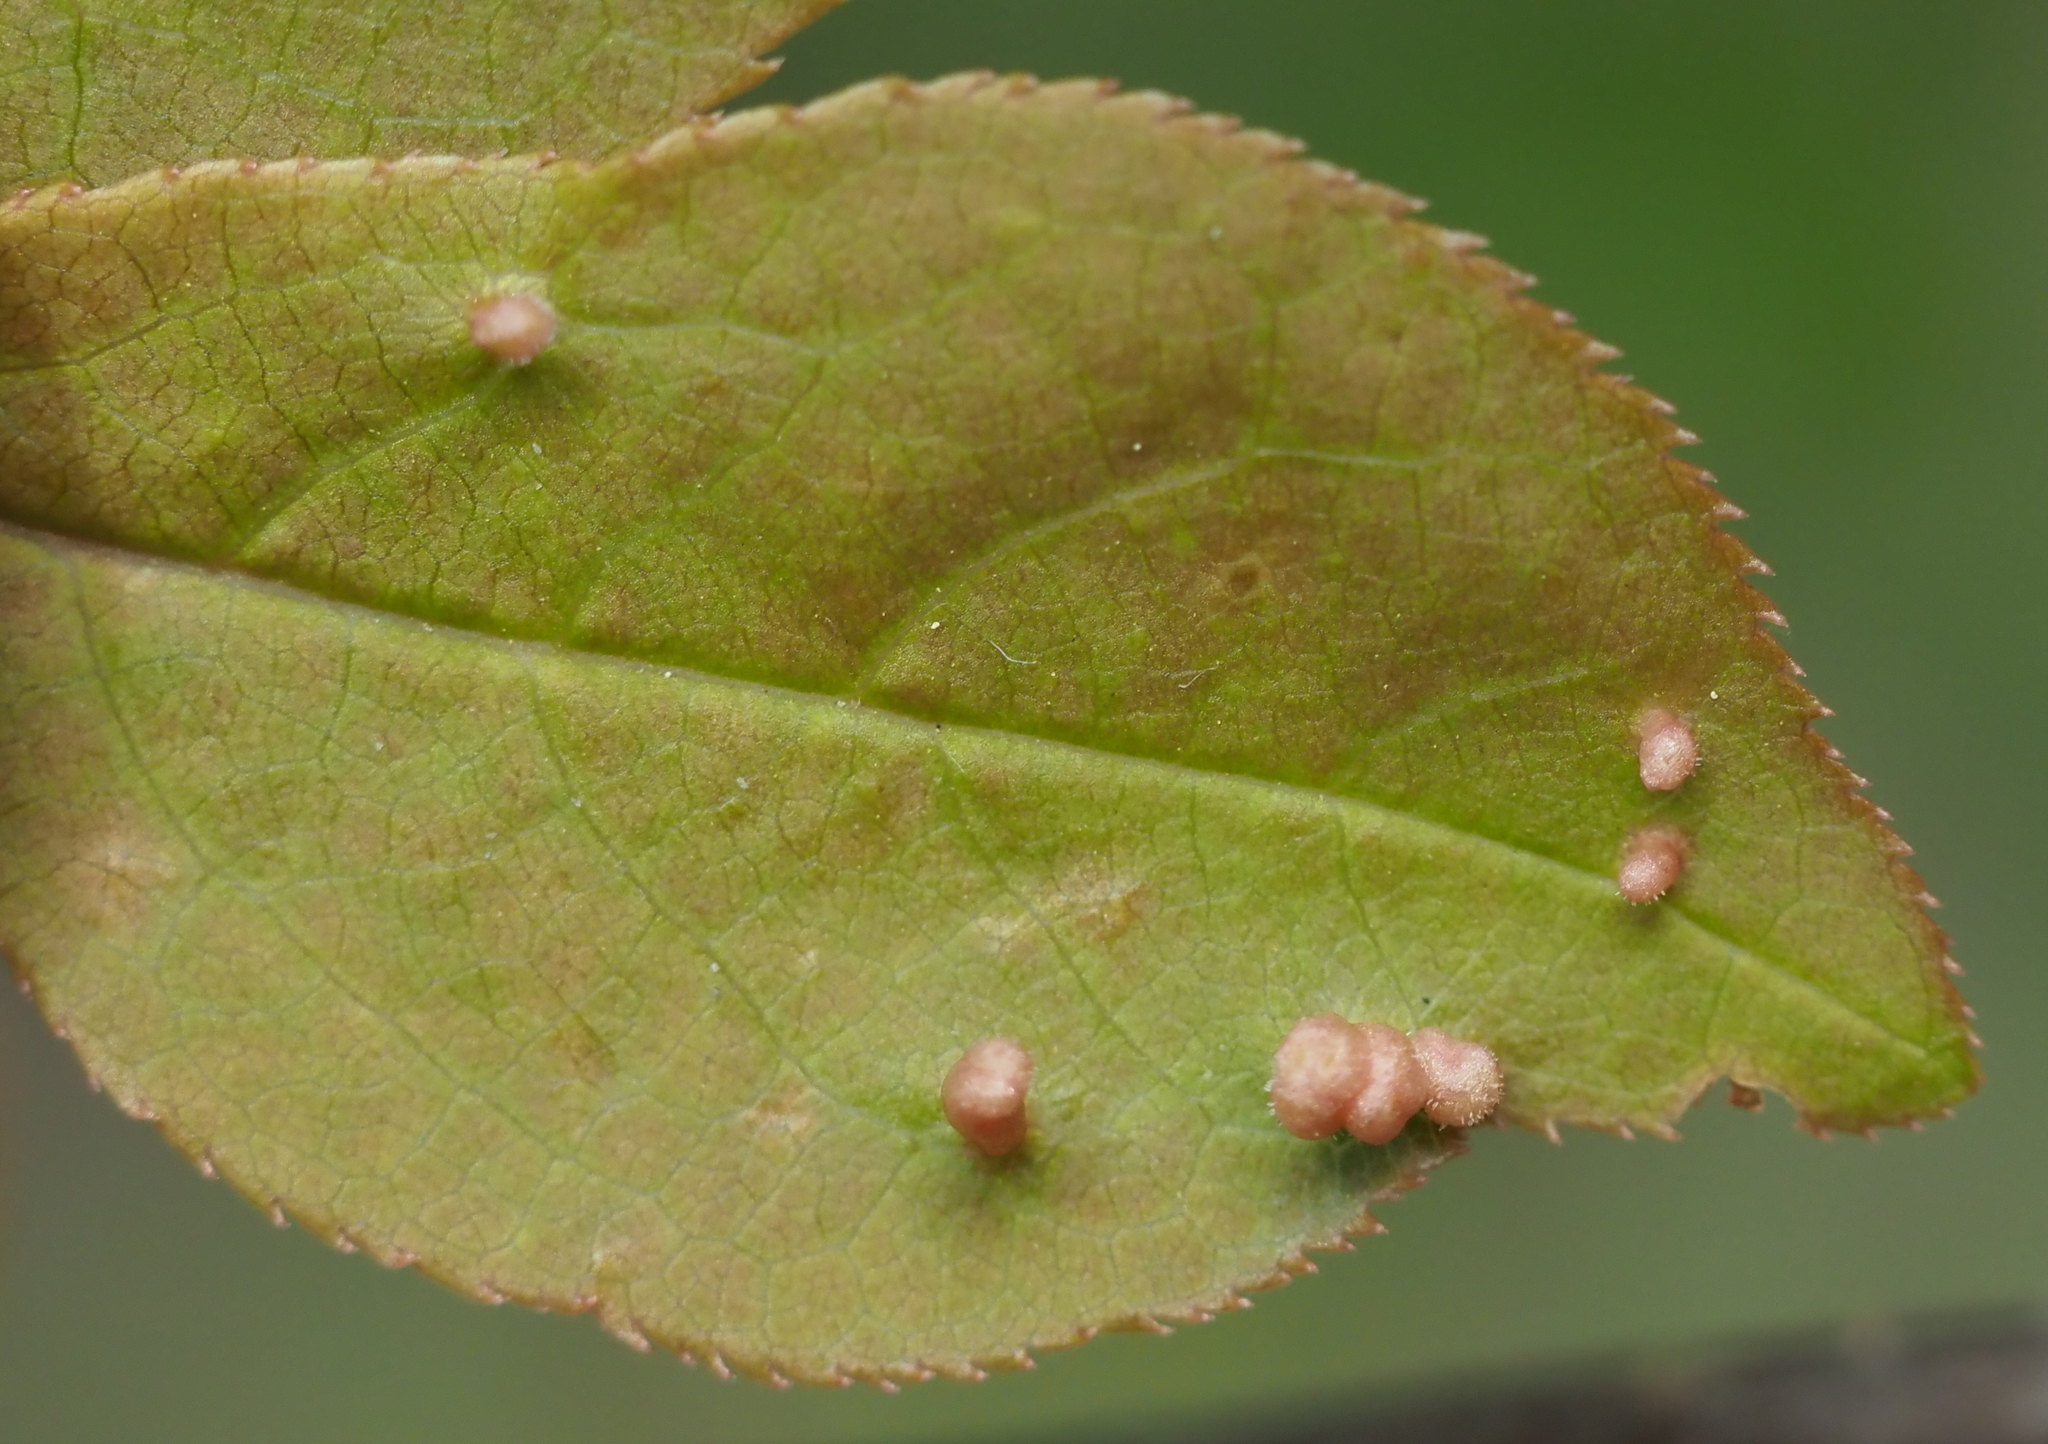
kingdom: Animalia
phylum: Arthropoda
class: Arachnida
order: Trombidiformes
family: Eriophyidae
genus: Eriophyes
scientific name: Eriophyes emarginatae
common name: Plum leaf gall mite
